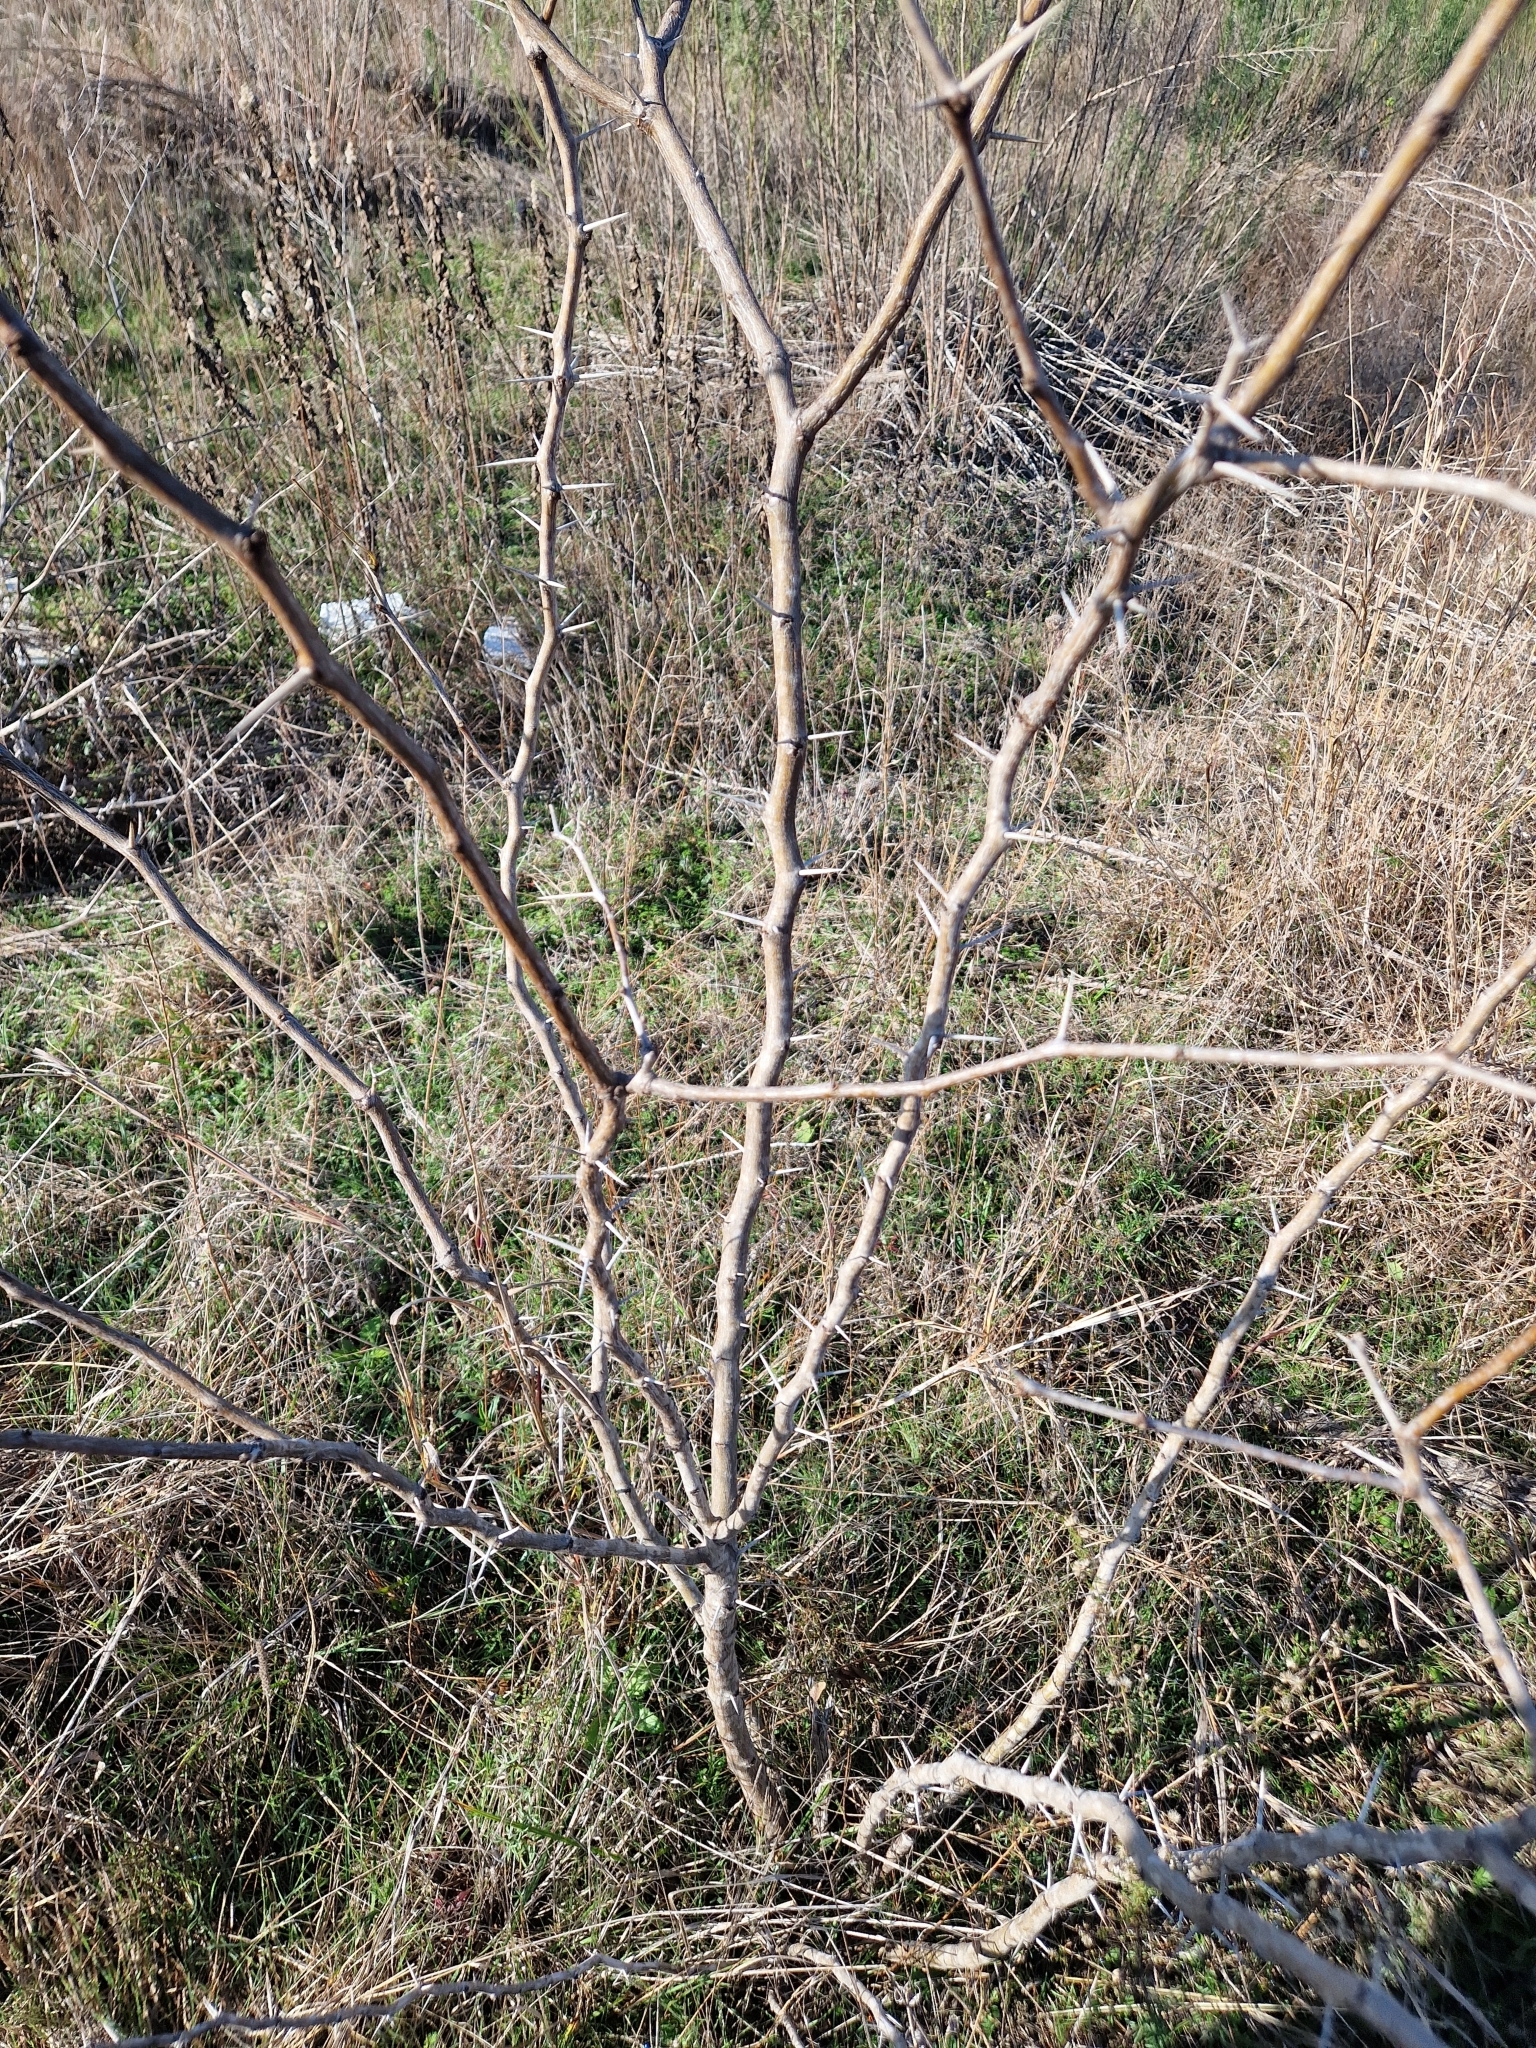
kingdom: Plantae
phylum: Tracheophyta
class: Magnoliopsida
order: Fabales
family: Fabaceae
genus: Prosopis
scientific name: Prosopis glandulosa
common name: Honey mesquite
